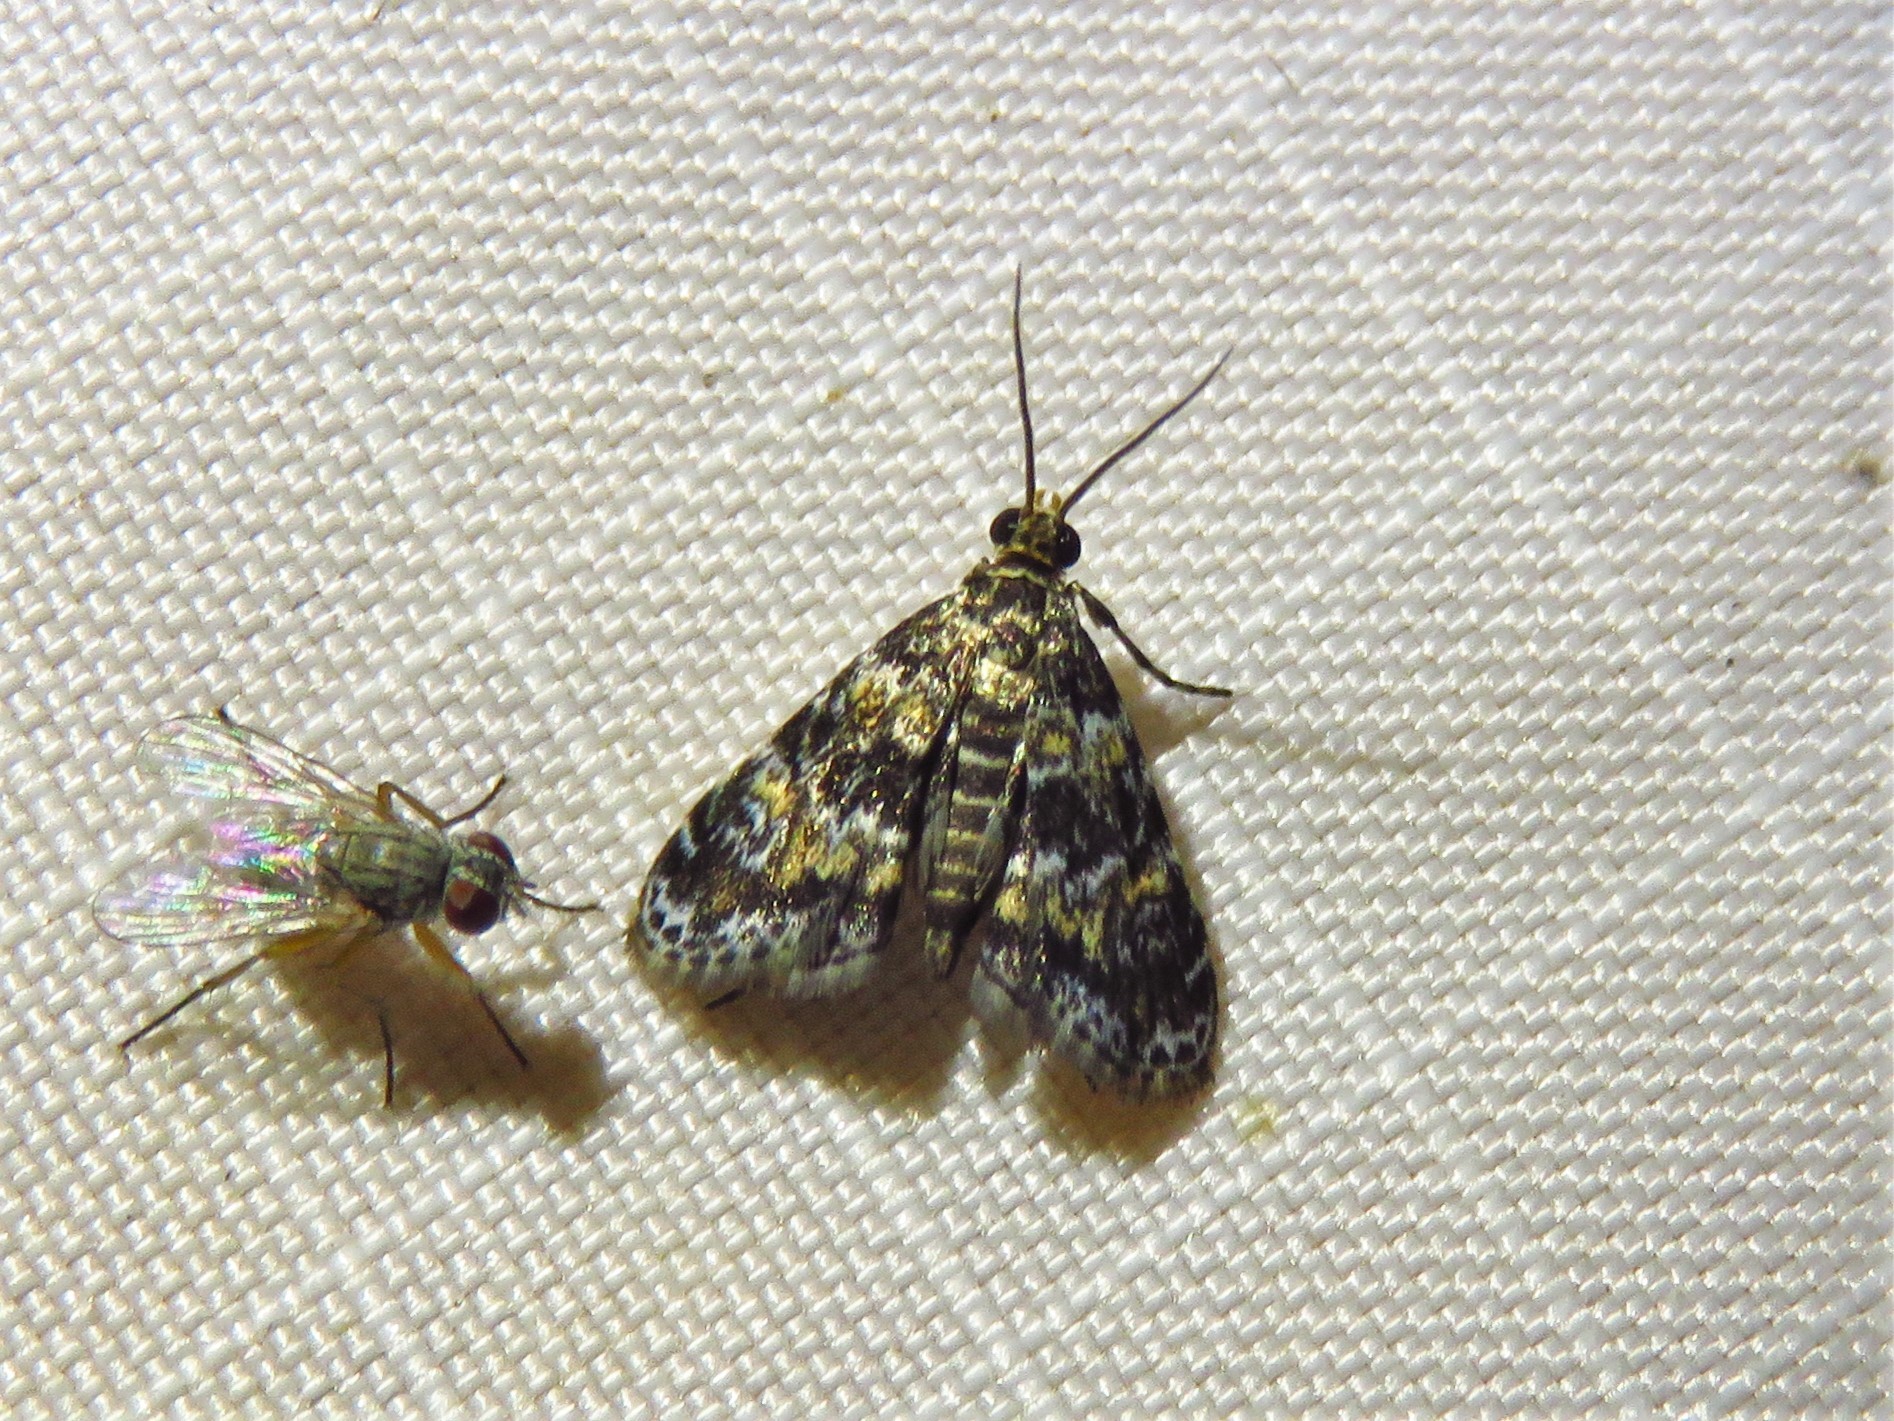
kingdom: Animalia
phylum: Arthropoda
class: Insecta
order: Lepidoptera
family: Crambidae
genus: Elophila
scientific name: Elophila obliteralis
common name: Waterlily leafcutter moth
